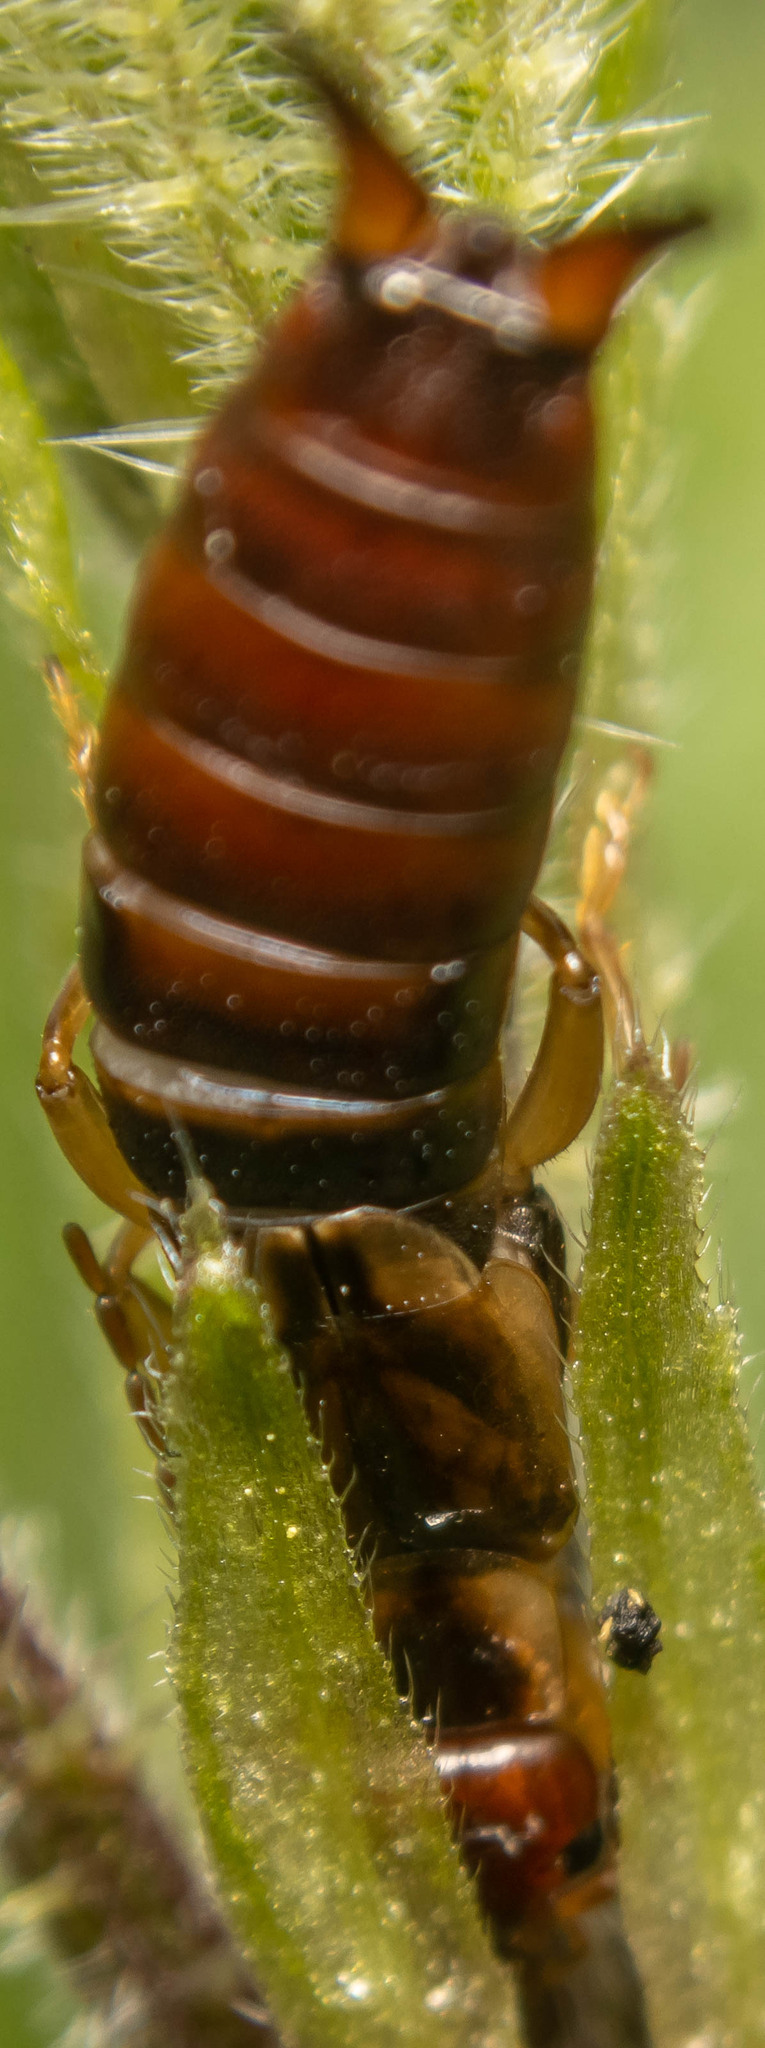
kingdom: Animalia
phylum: Arthropoda
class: Insecta
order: Dermaptera
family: Forficulidae
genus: Forficula
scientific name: Forficula
